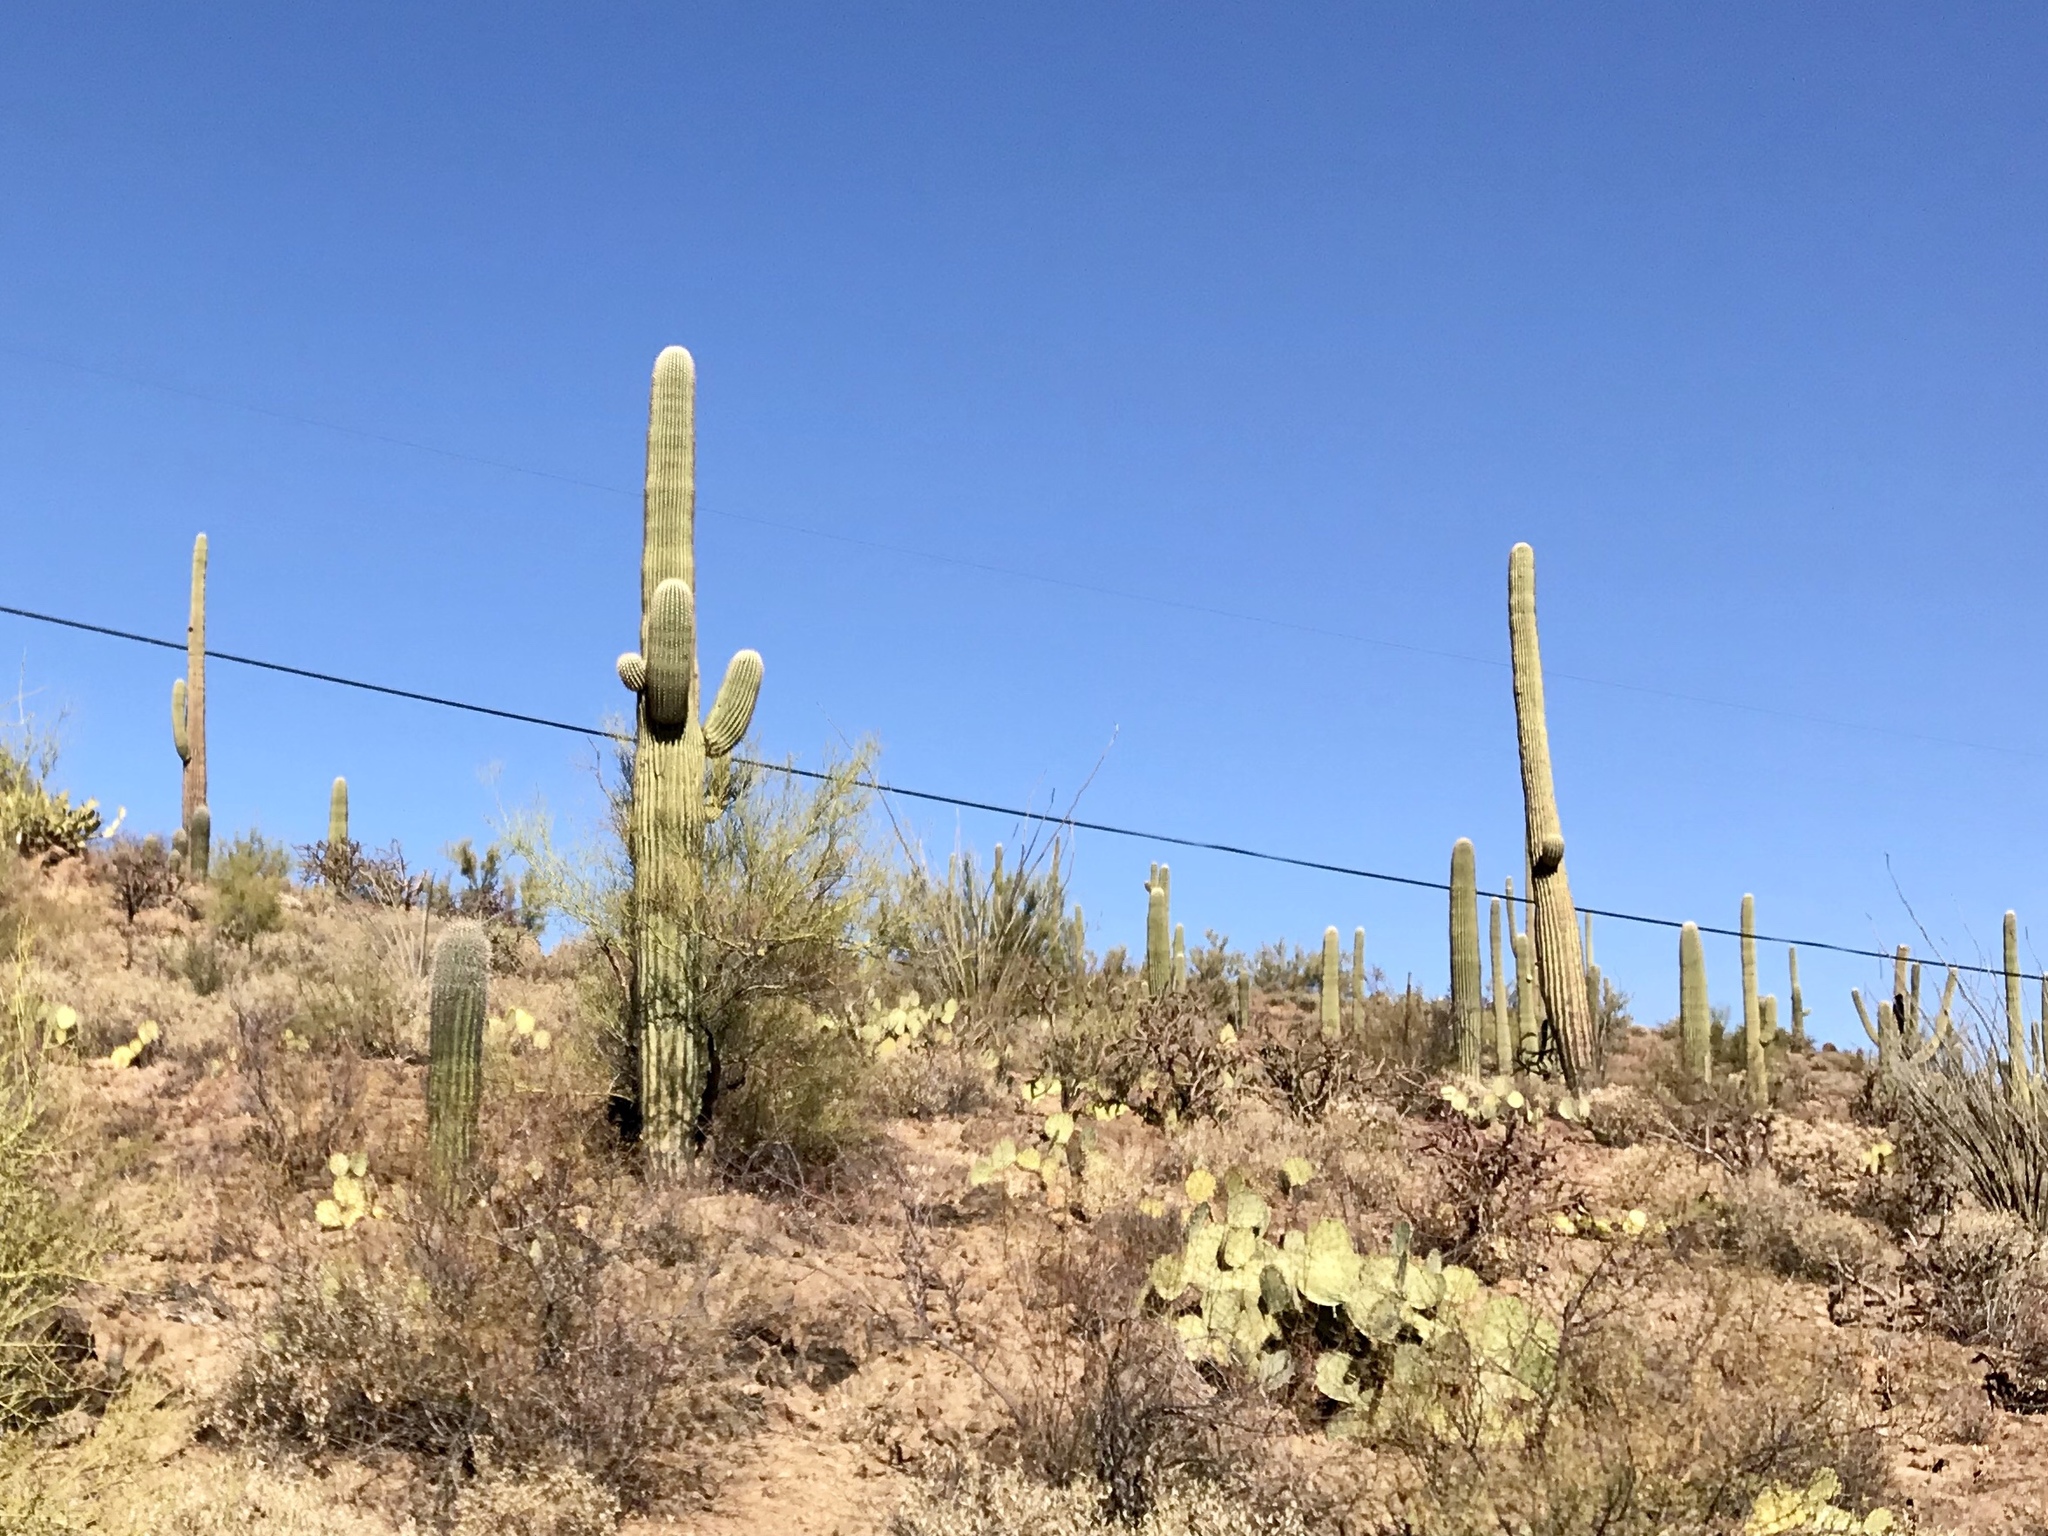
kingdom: Plantae
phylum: Tracheophyta
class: Magnoliopsida
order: Caryophyllales
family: Cactaceae
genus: Carnegiea
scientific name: Carnegiea gigantea
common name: Saguaro
